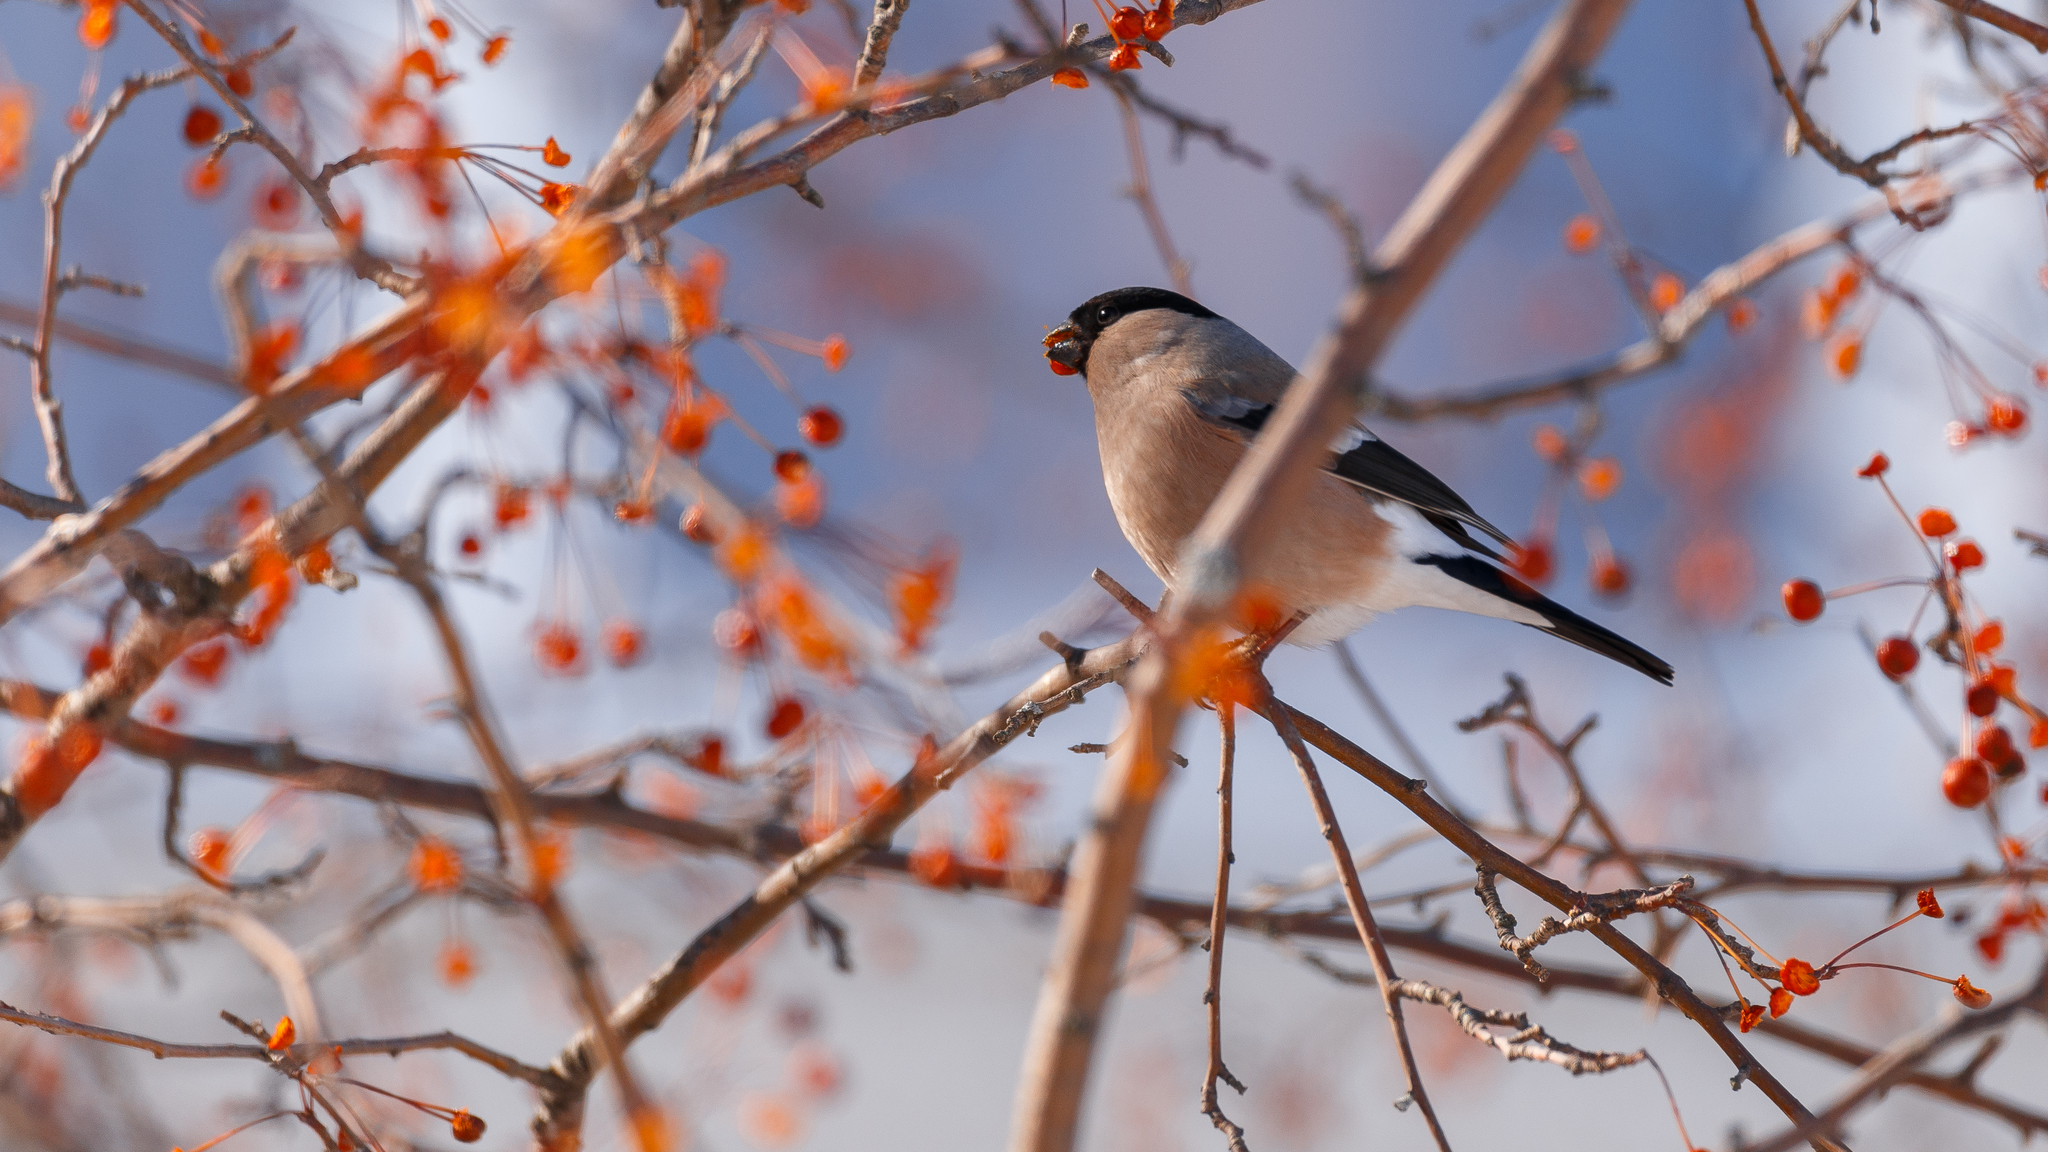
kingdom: Animalia
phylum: Chordata
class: Aves
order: Passeriformes
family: Fringillidae
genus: Pyrrhula
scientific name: Pyrrhula pyrrhula
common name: Eurasian bullfinch
